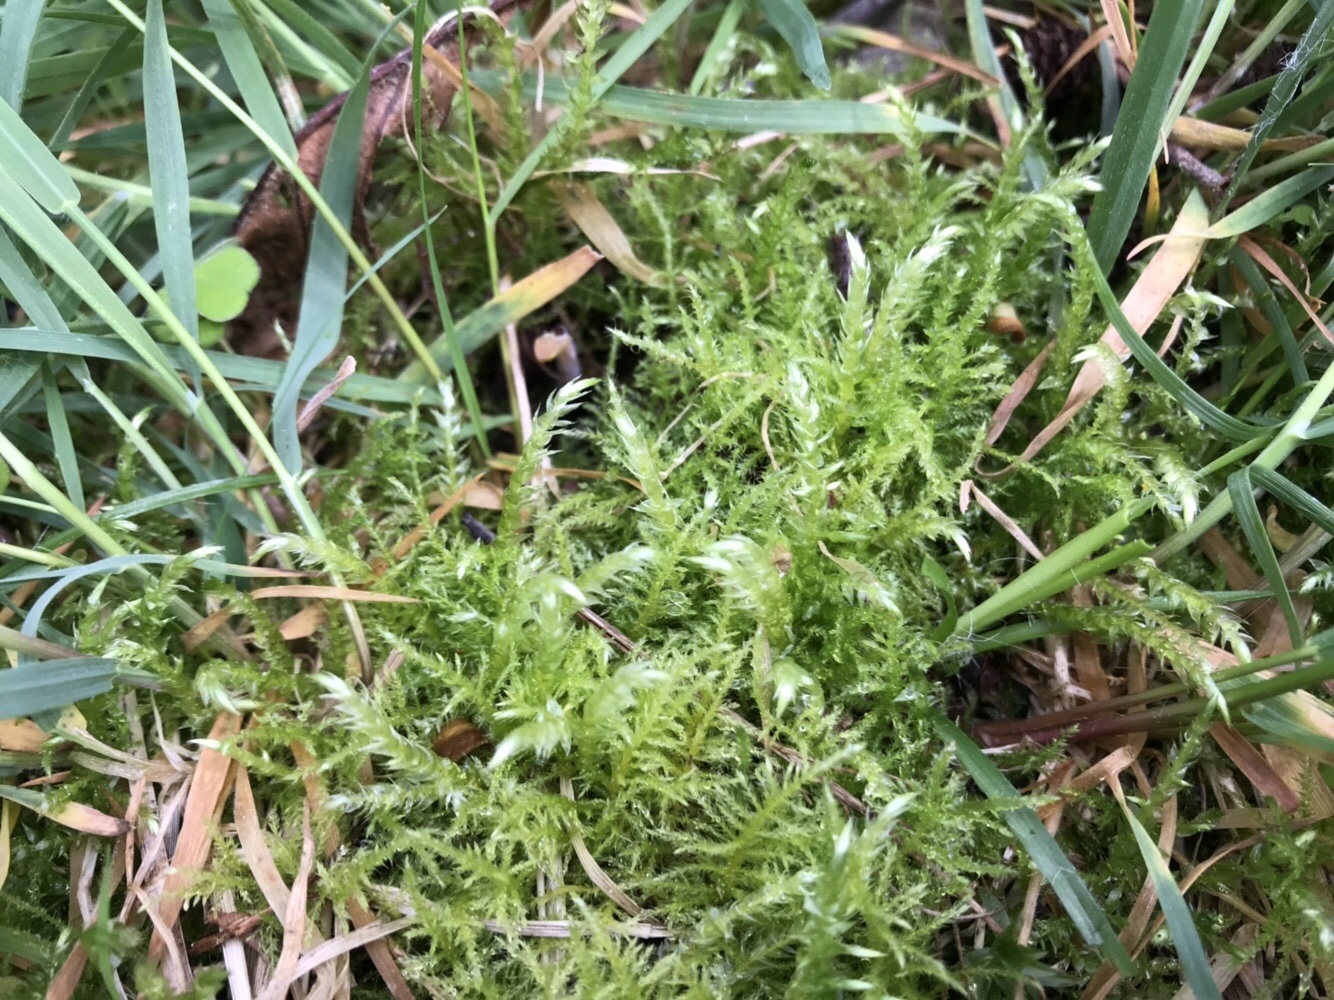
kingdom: Plantae
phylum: Bryophyta
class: Bryopsida
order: Hypnales
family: Brachytheciaceae
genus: Kindbergia
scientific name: Kindbergia praelonga
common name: Slender beaked moss
